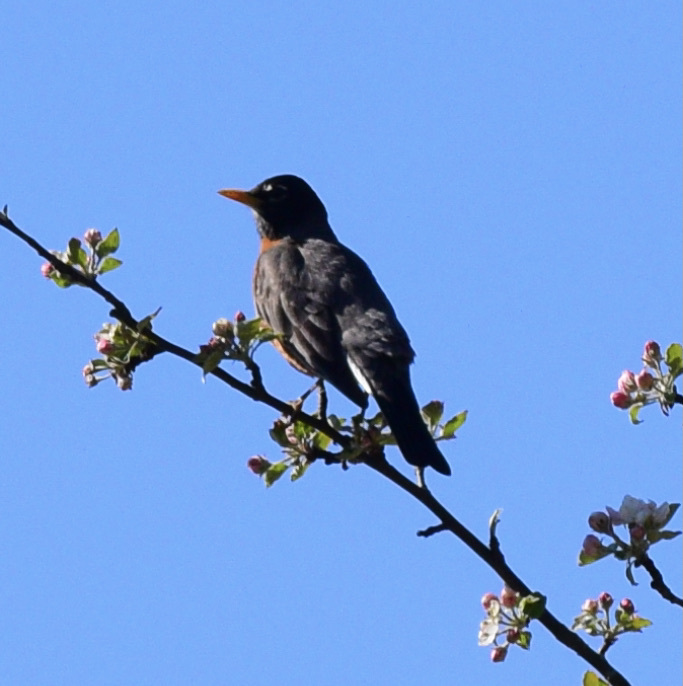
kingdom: Animalia
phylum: Chordata
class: Aves
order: Passeriformes
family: Turdidae
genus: Turdus
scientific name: Turdus migratorius
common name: American robin
